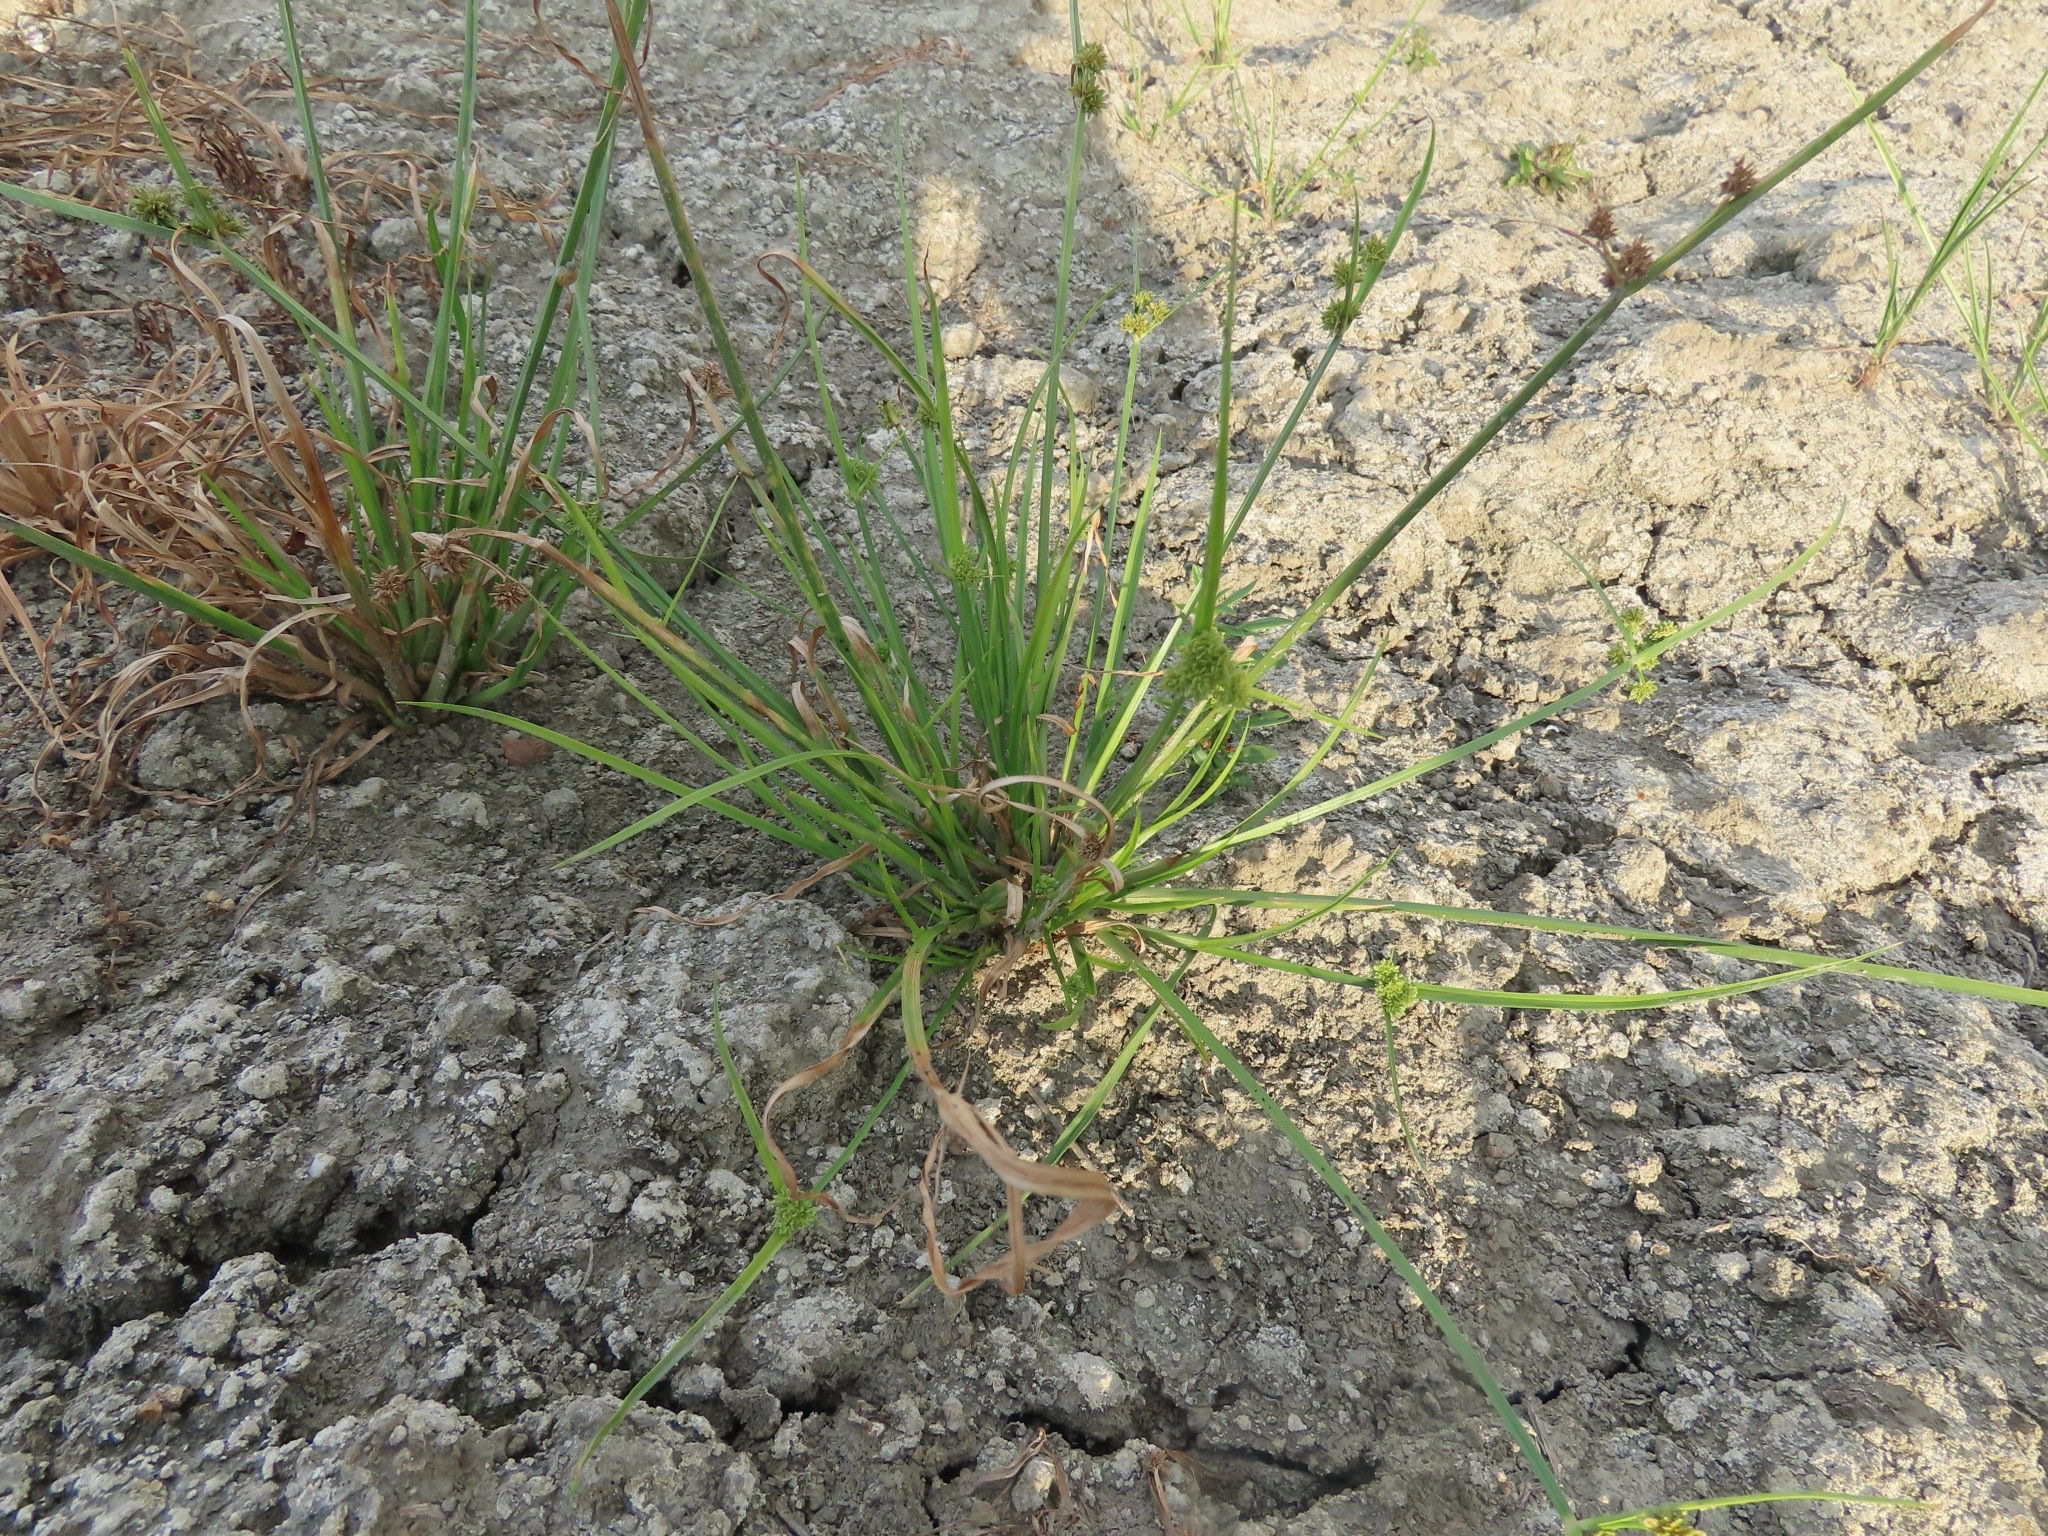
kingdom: Plantae
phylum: Tracheophyta
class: Liliopsida
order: Poales
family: Cyperaceae
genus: Cyperus
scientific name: Cyperus difformis
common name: Variable flatsedge
